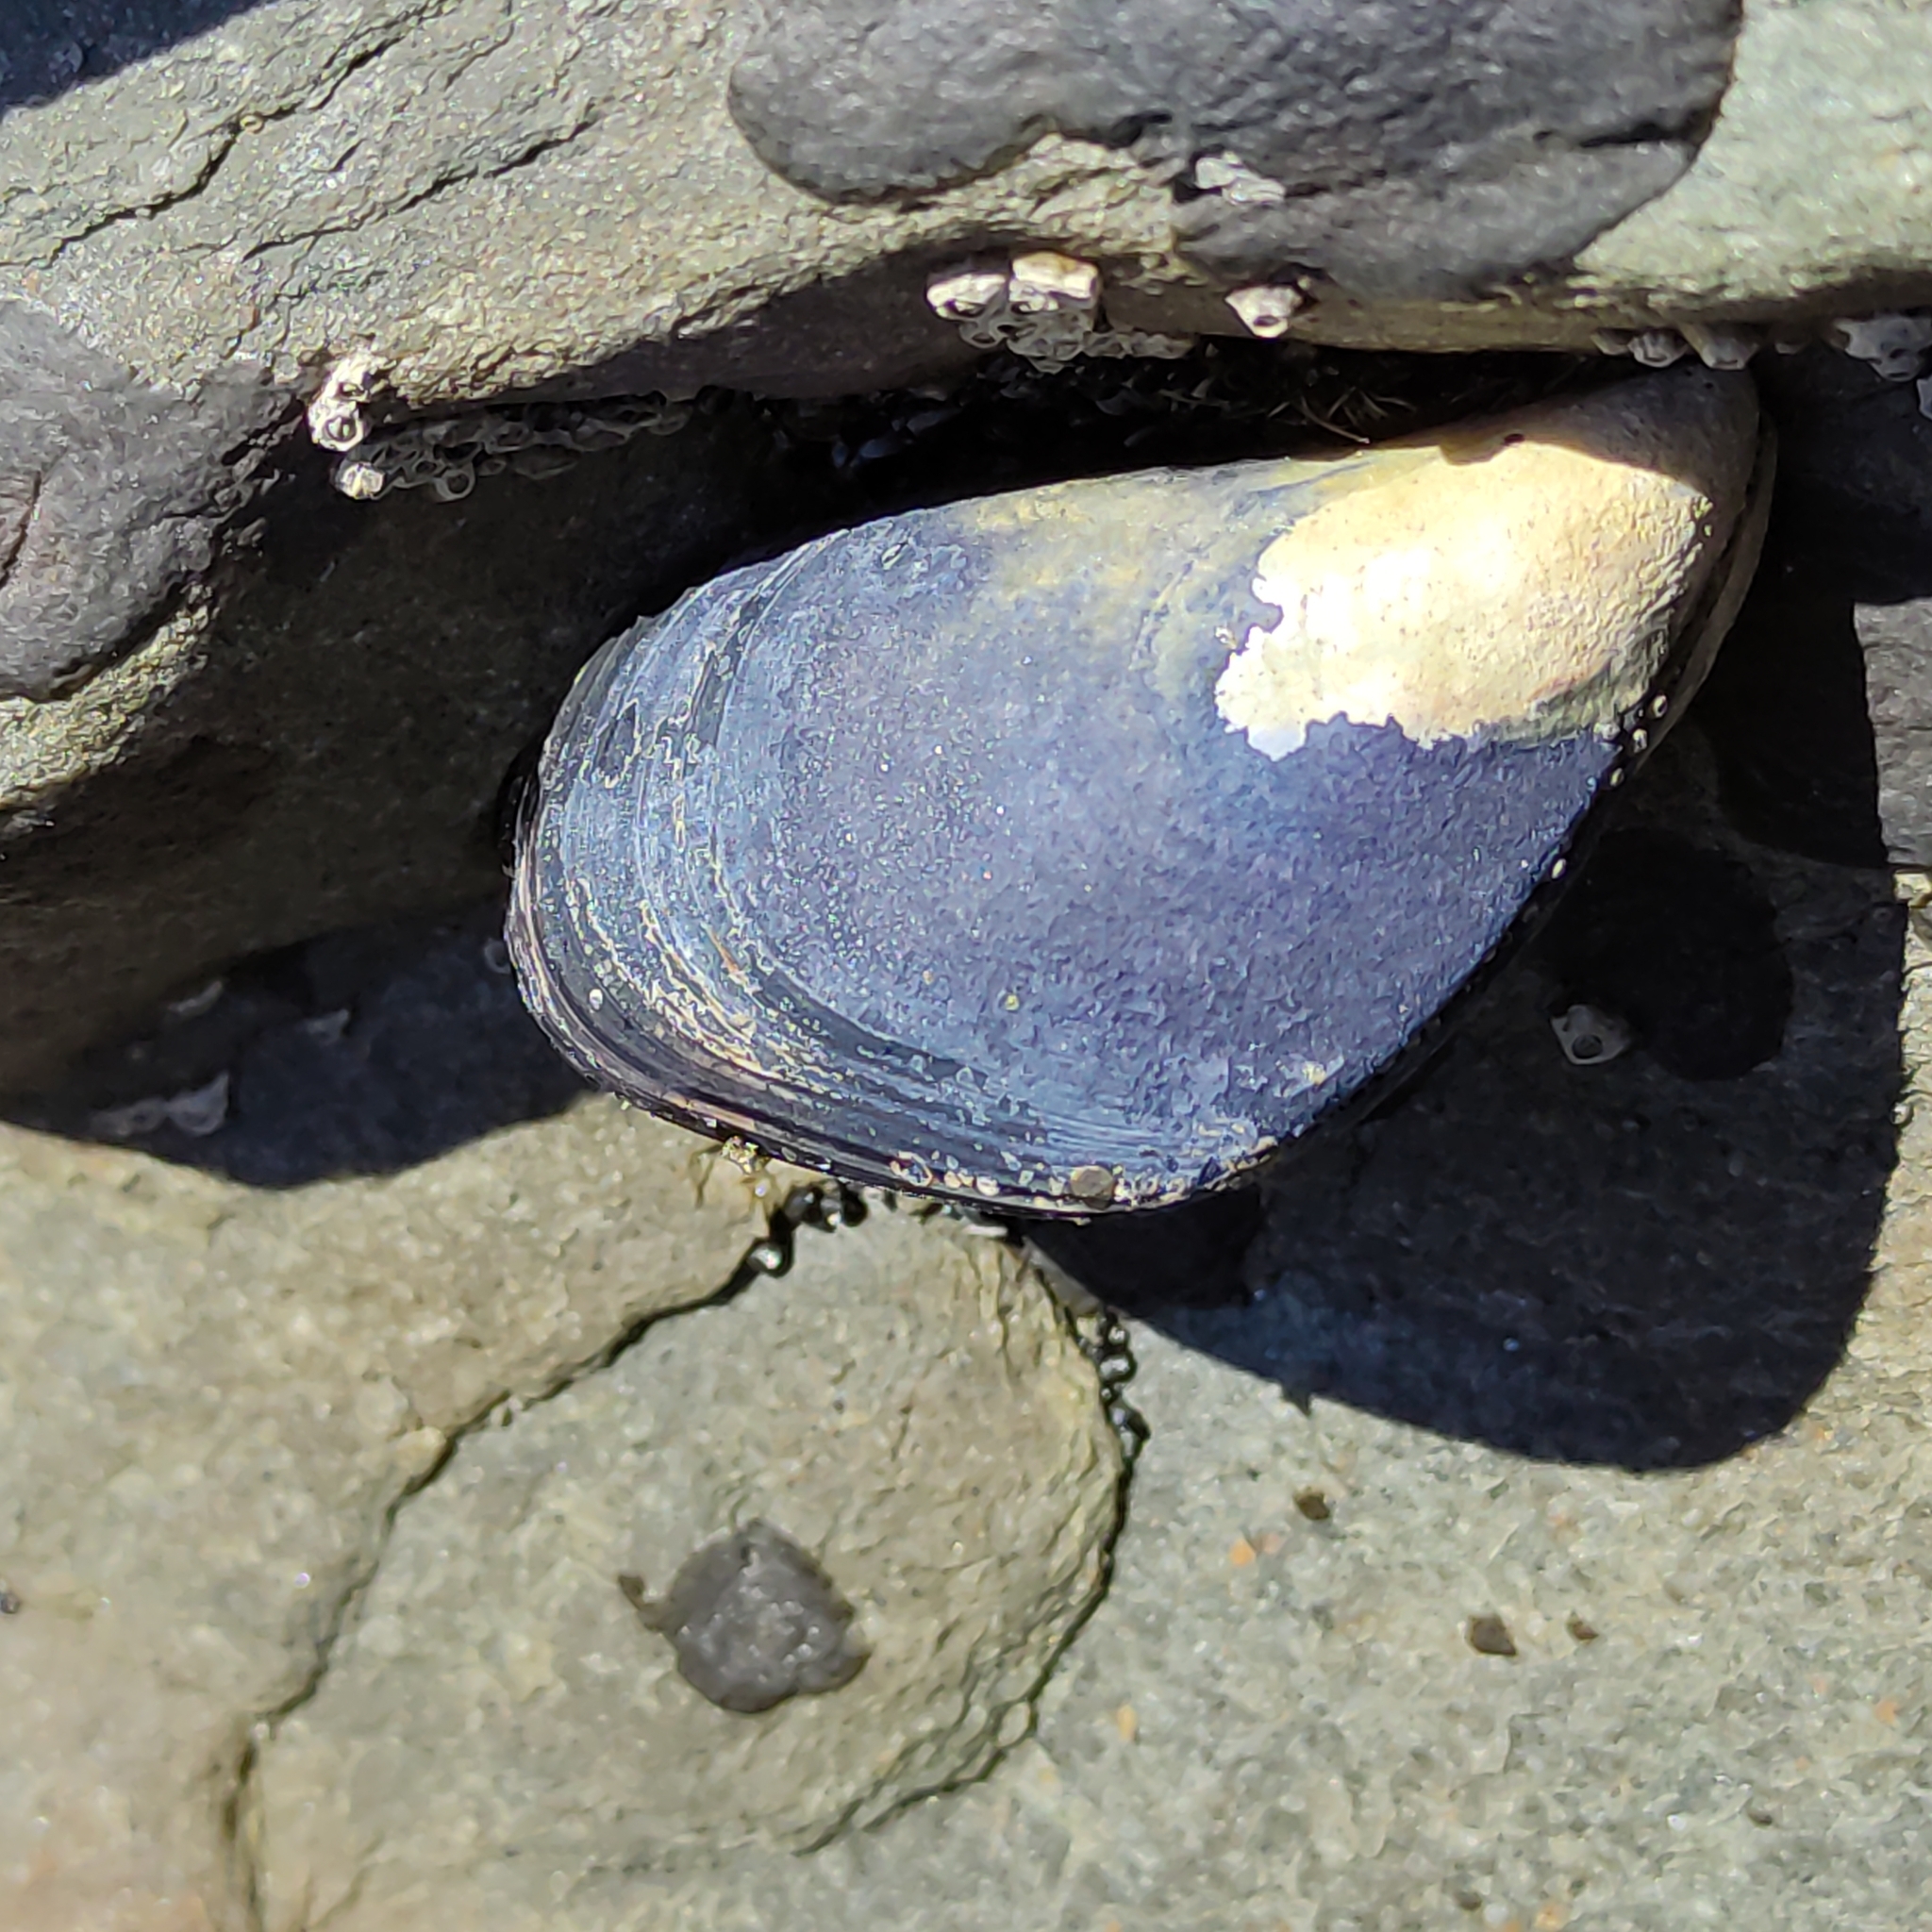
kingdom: Animalia
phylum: Mollusca
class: Bivalvia
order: Mytilida
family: Mytilidae
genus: Mytilus
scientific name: Mytilus planulatus
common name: Australian mussel
